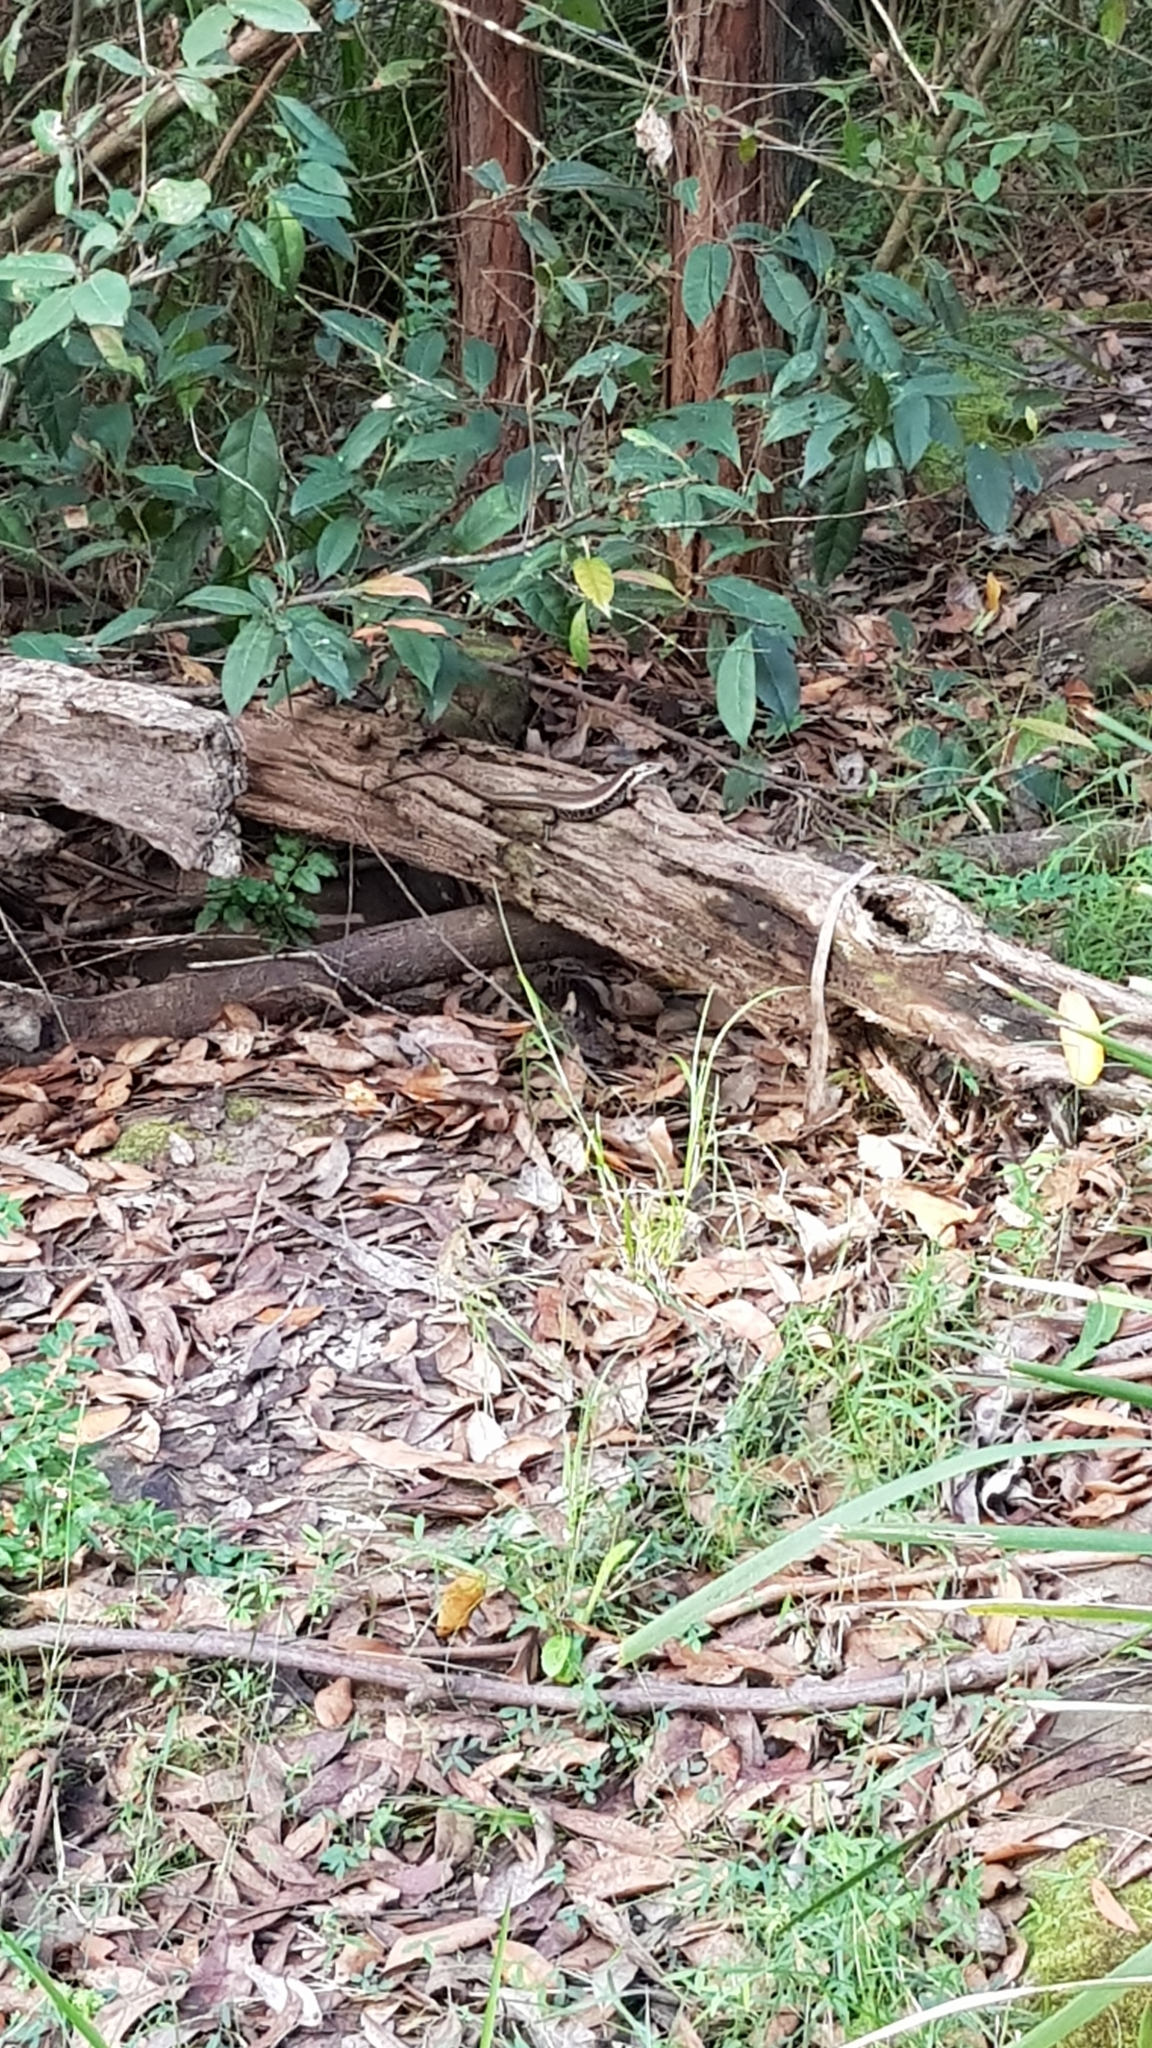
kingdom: Animalia
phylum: Chordata
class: Squamata
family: Scincidae
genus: Eulamprus
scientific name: Eulamprus quoyii
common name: Eastern water skink
